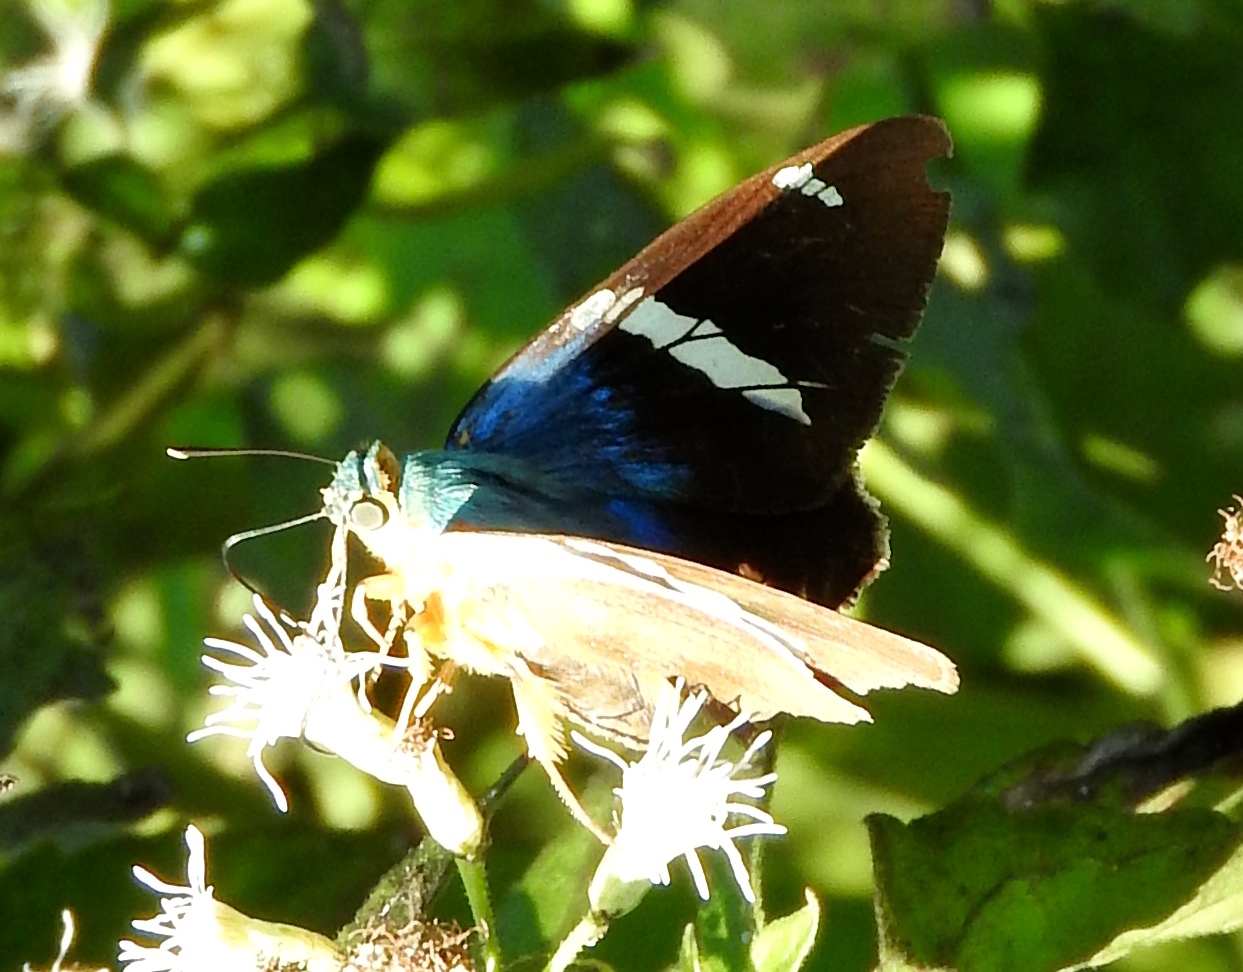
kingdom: Animalia
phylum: Arthropoda
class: Insecta
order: Lepidoptera
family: Hesperiidae
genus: Astraptes
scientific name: Astraptes fulgerator
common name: Two-barred flasher
